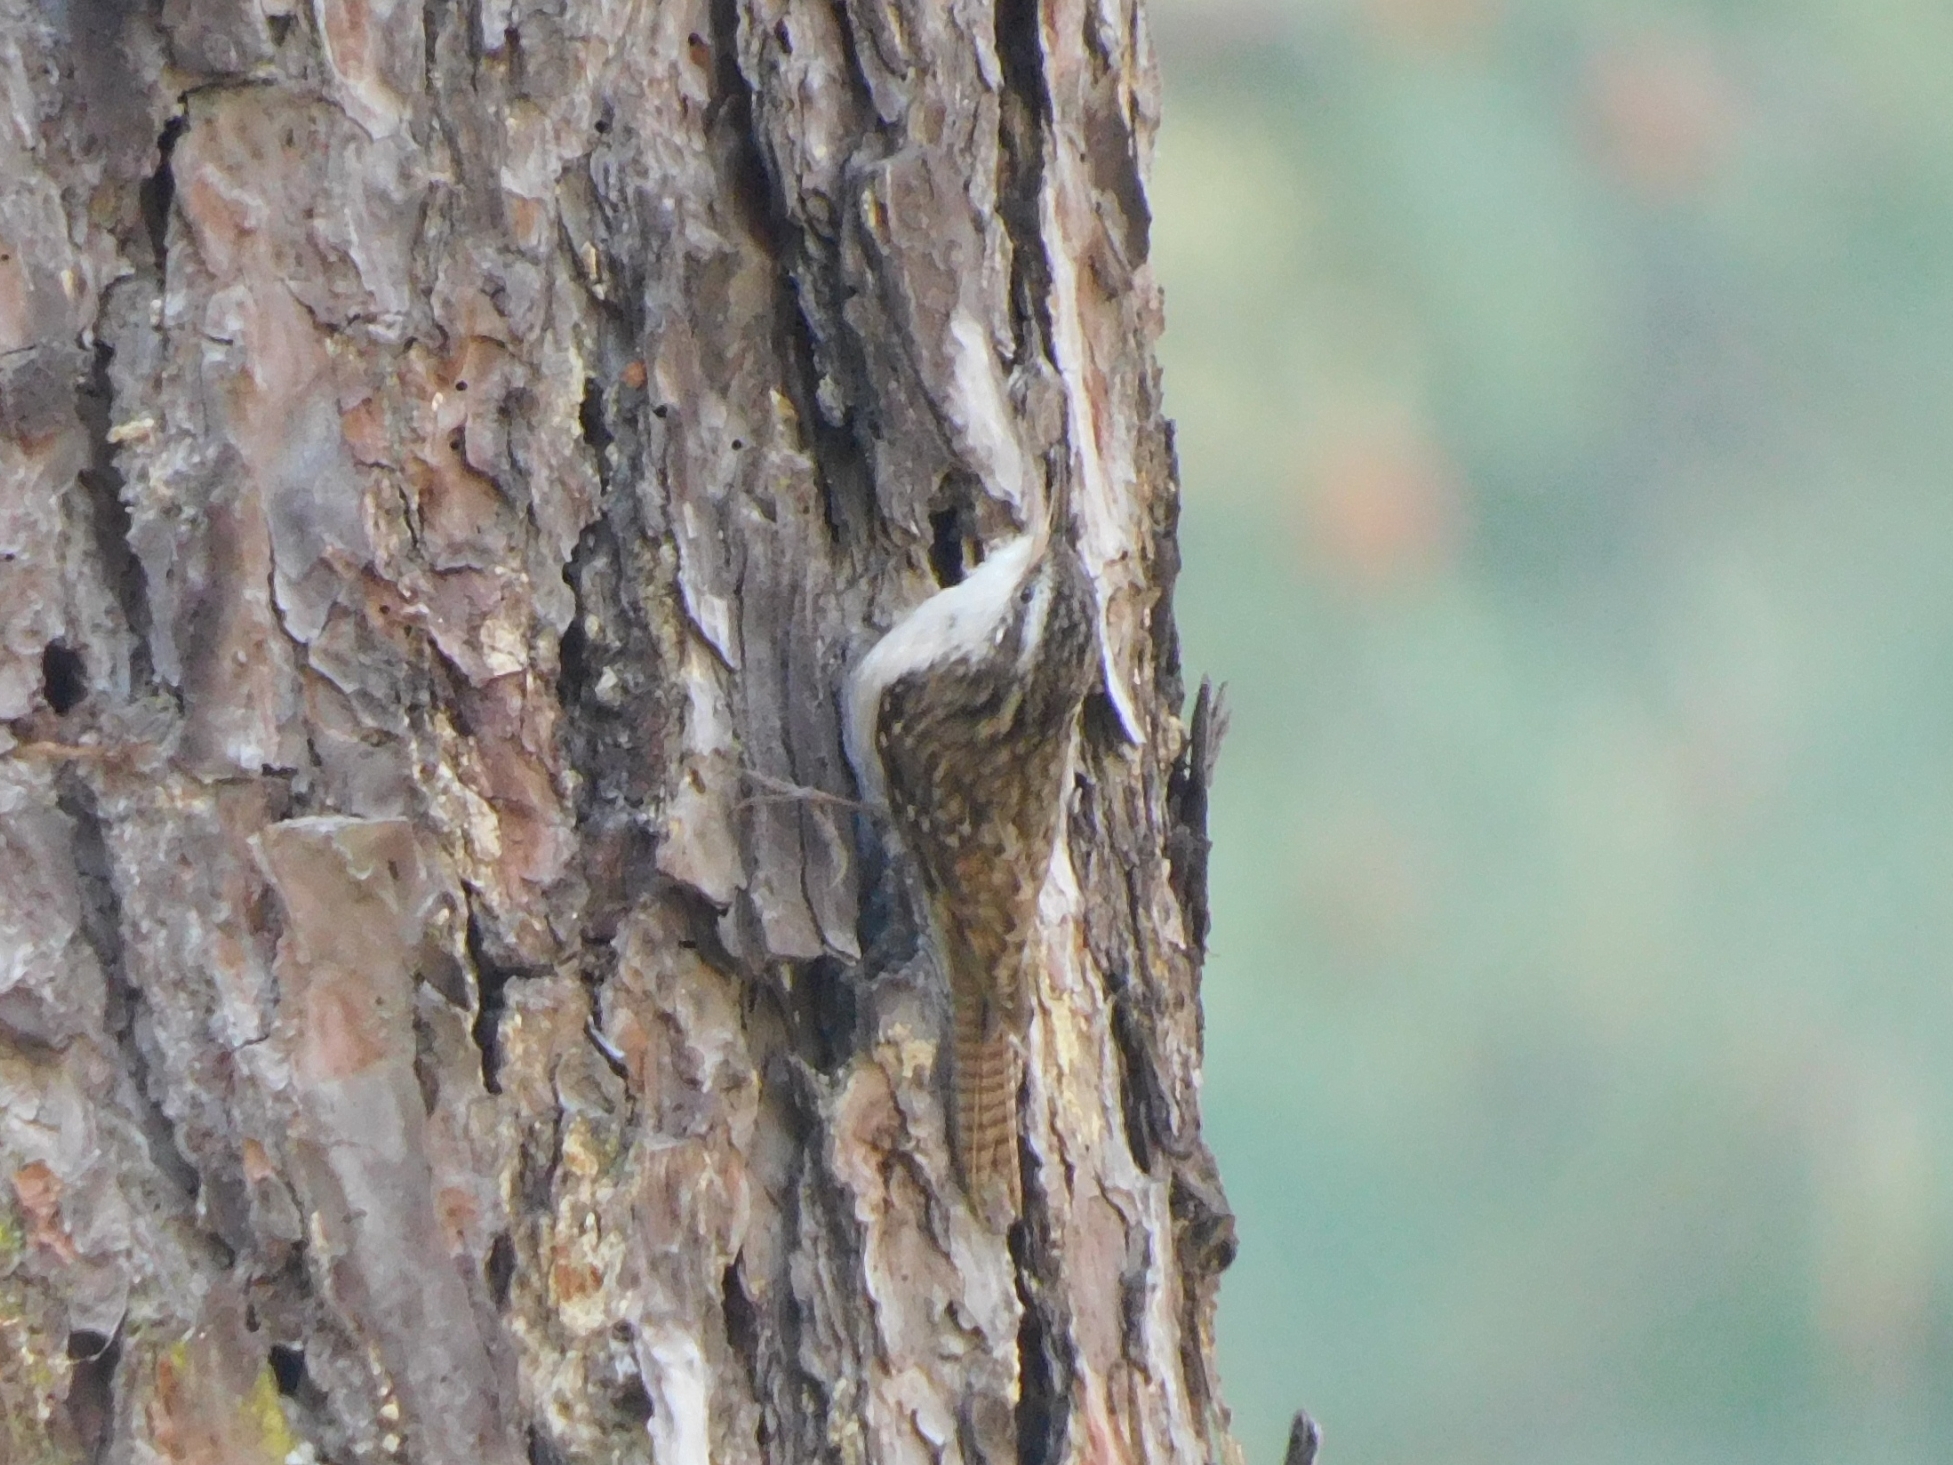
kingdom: Animalia
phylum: Chordata
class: Aves
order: Passeriformes
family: Certhiidae
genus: Certhia
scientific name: Certhia himalayana
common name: Bar-tailed treecreeper
